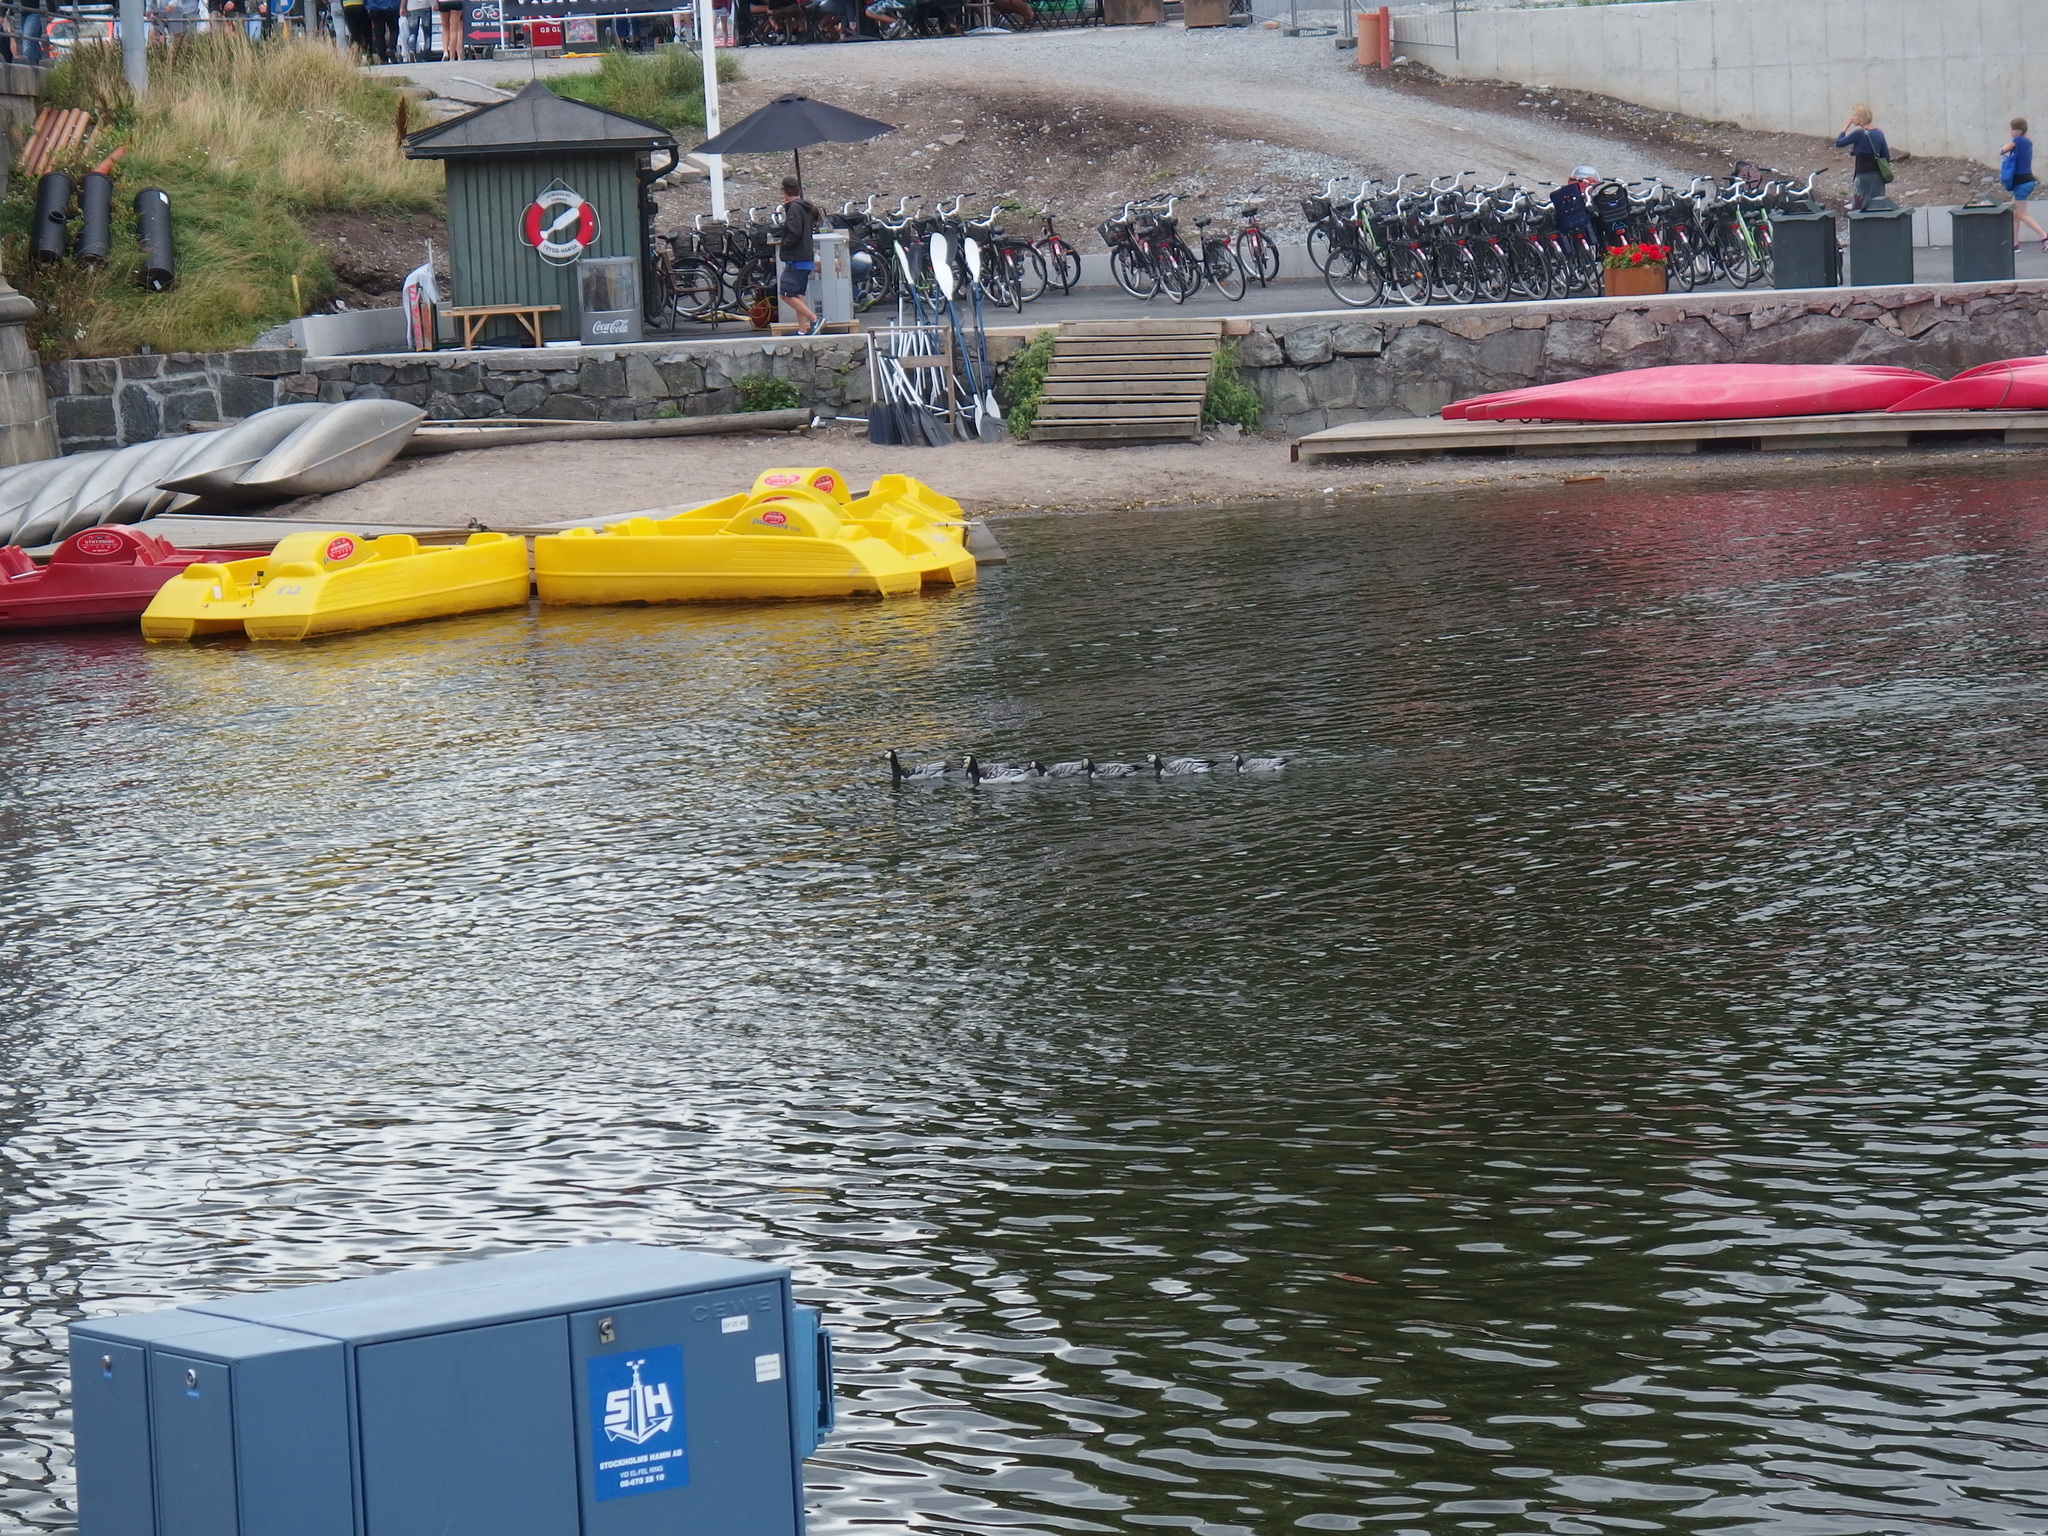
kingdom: Animalia
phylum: Chordata
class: Aves
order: Anseriformes
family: Anatidae
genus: Branta
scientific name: Branta leucopsis
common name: Barnacle goose
